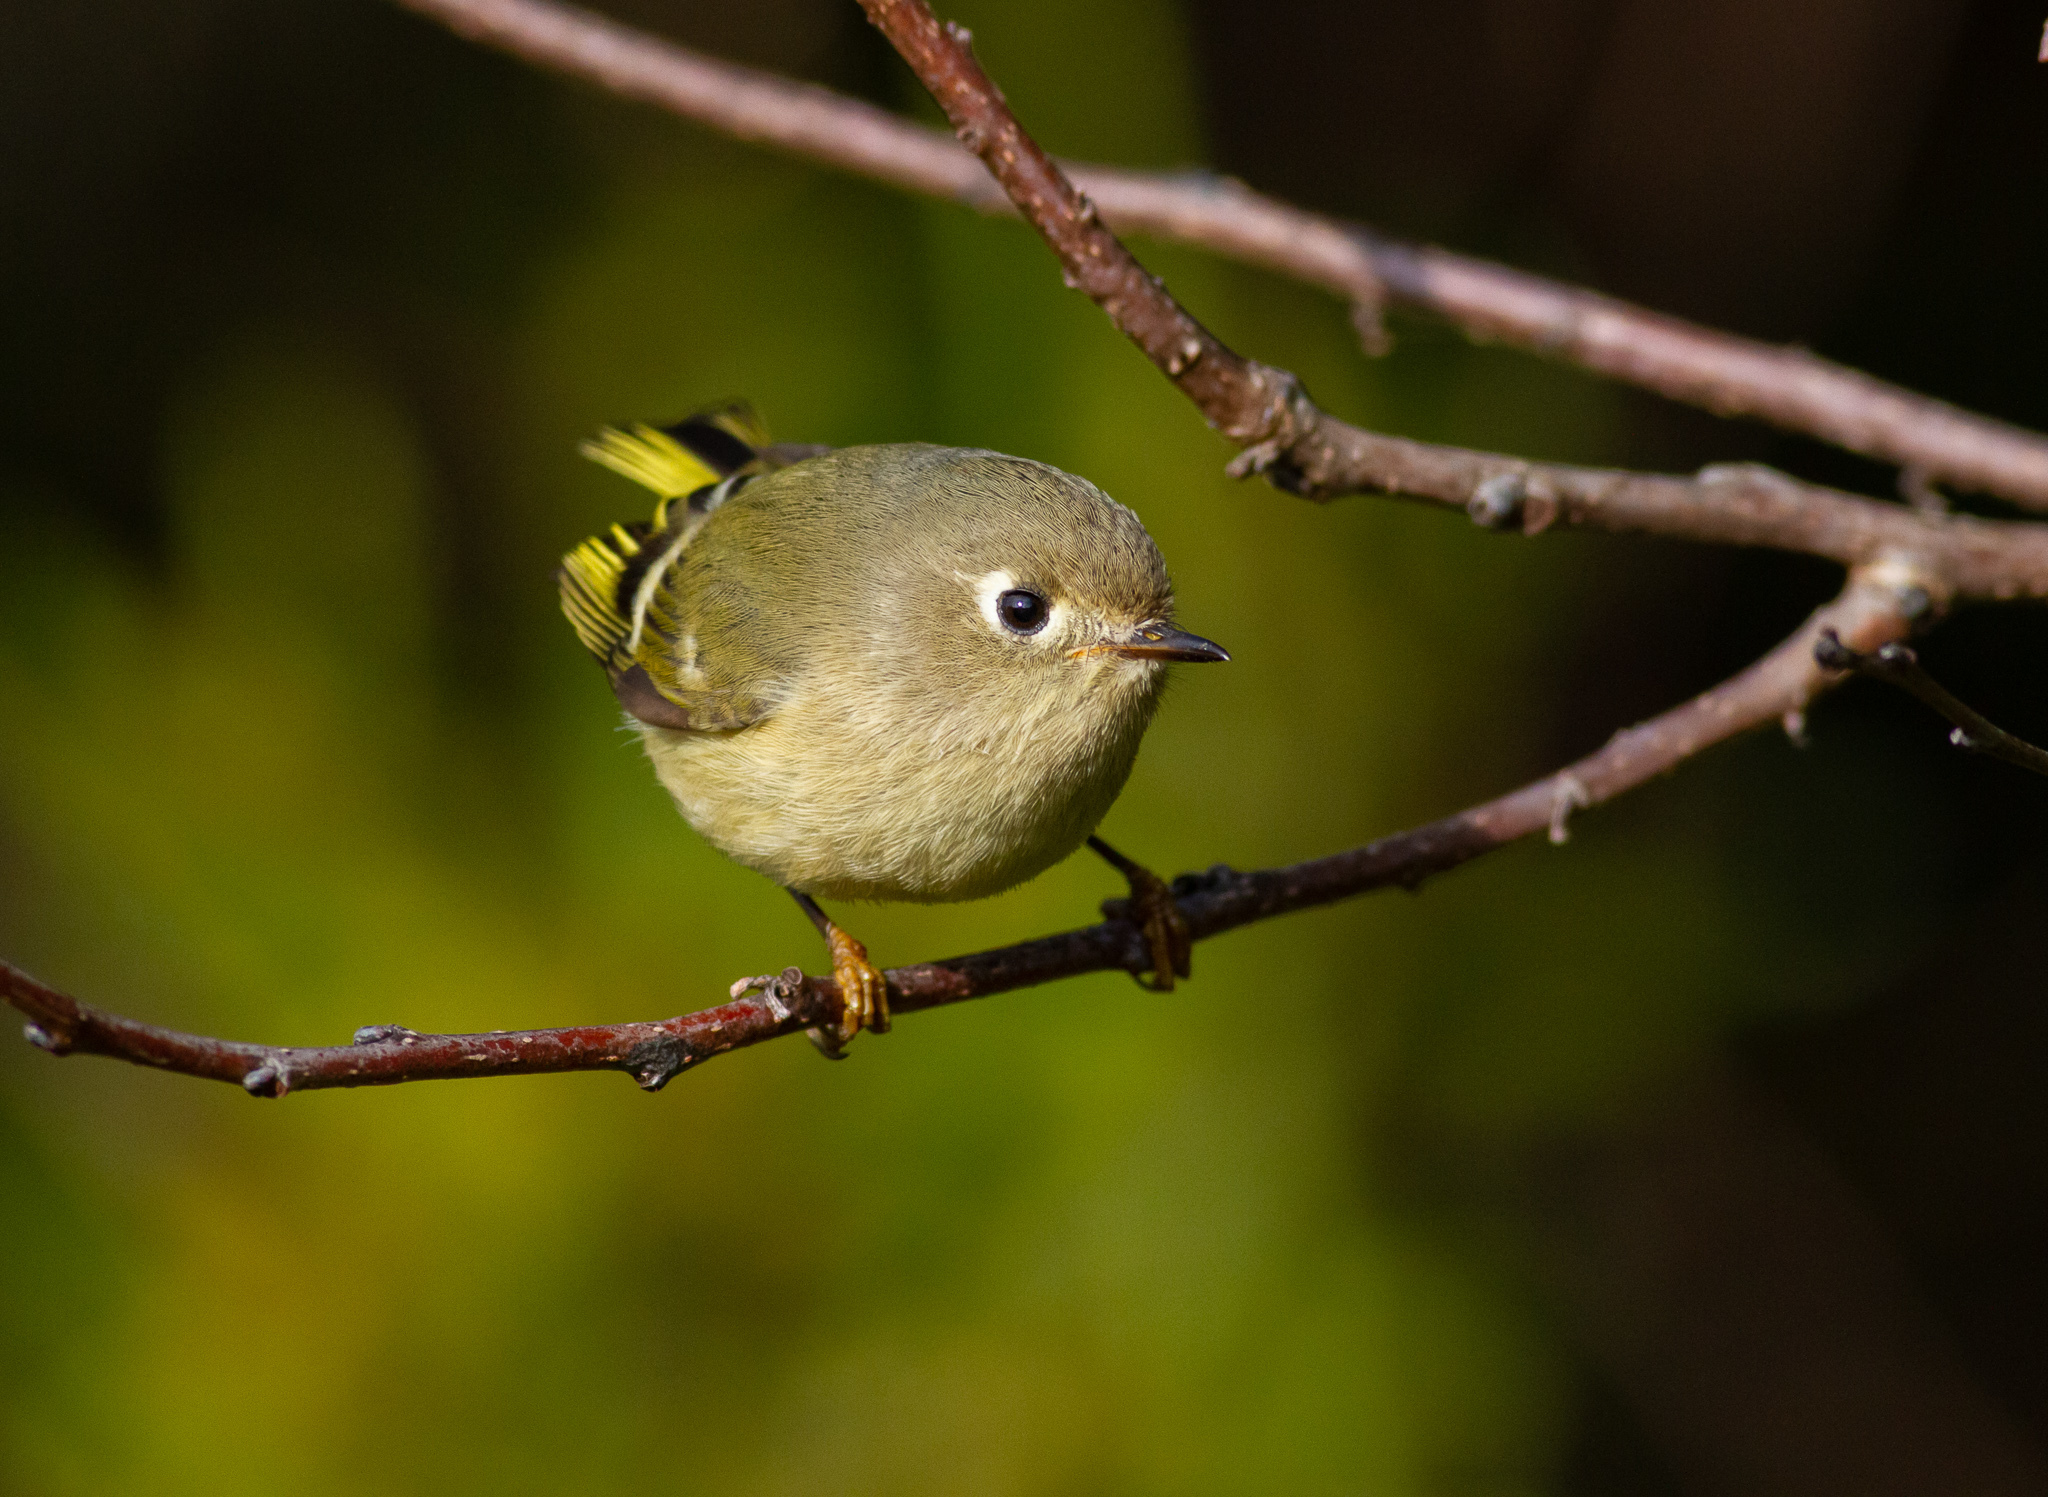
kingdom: Animalia
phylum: Chordata
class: Aves
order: Passeriformes
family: Regulidae
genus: Regulus
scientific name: Regulus calendula
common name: Ruby-crowned kinglet
